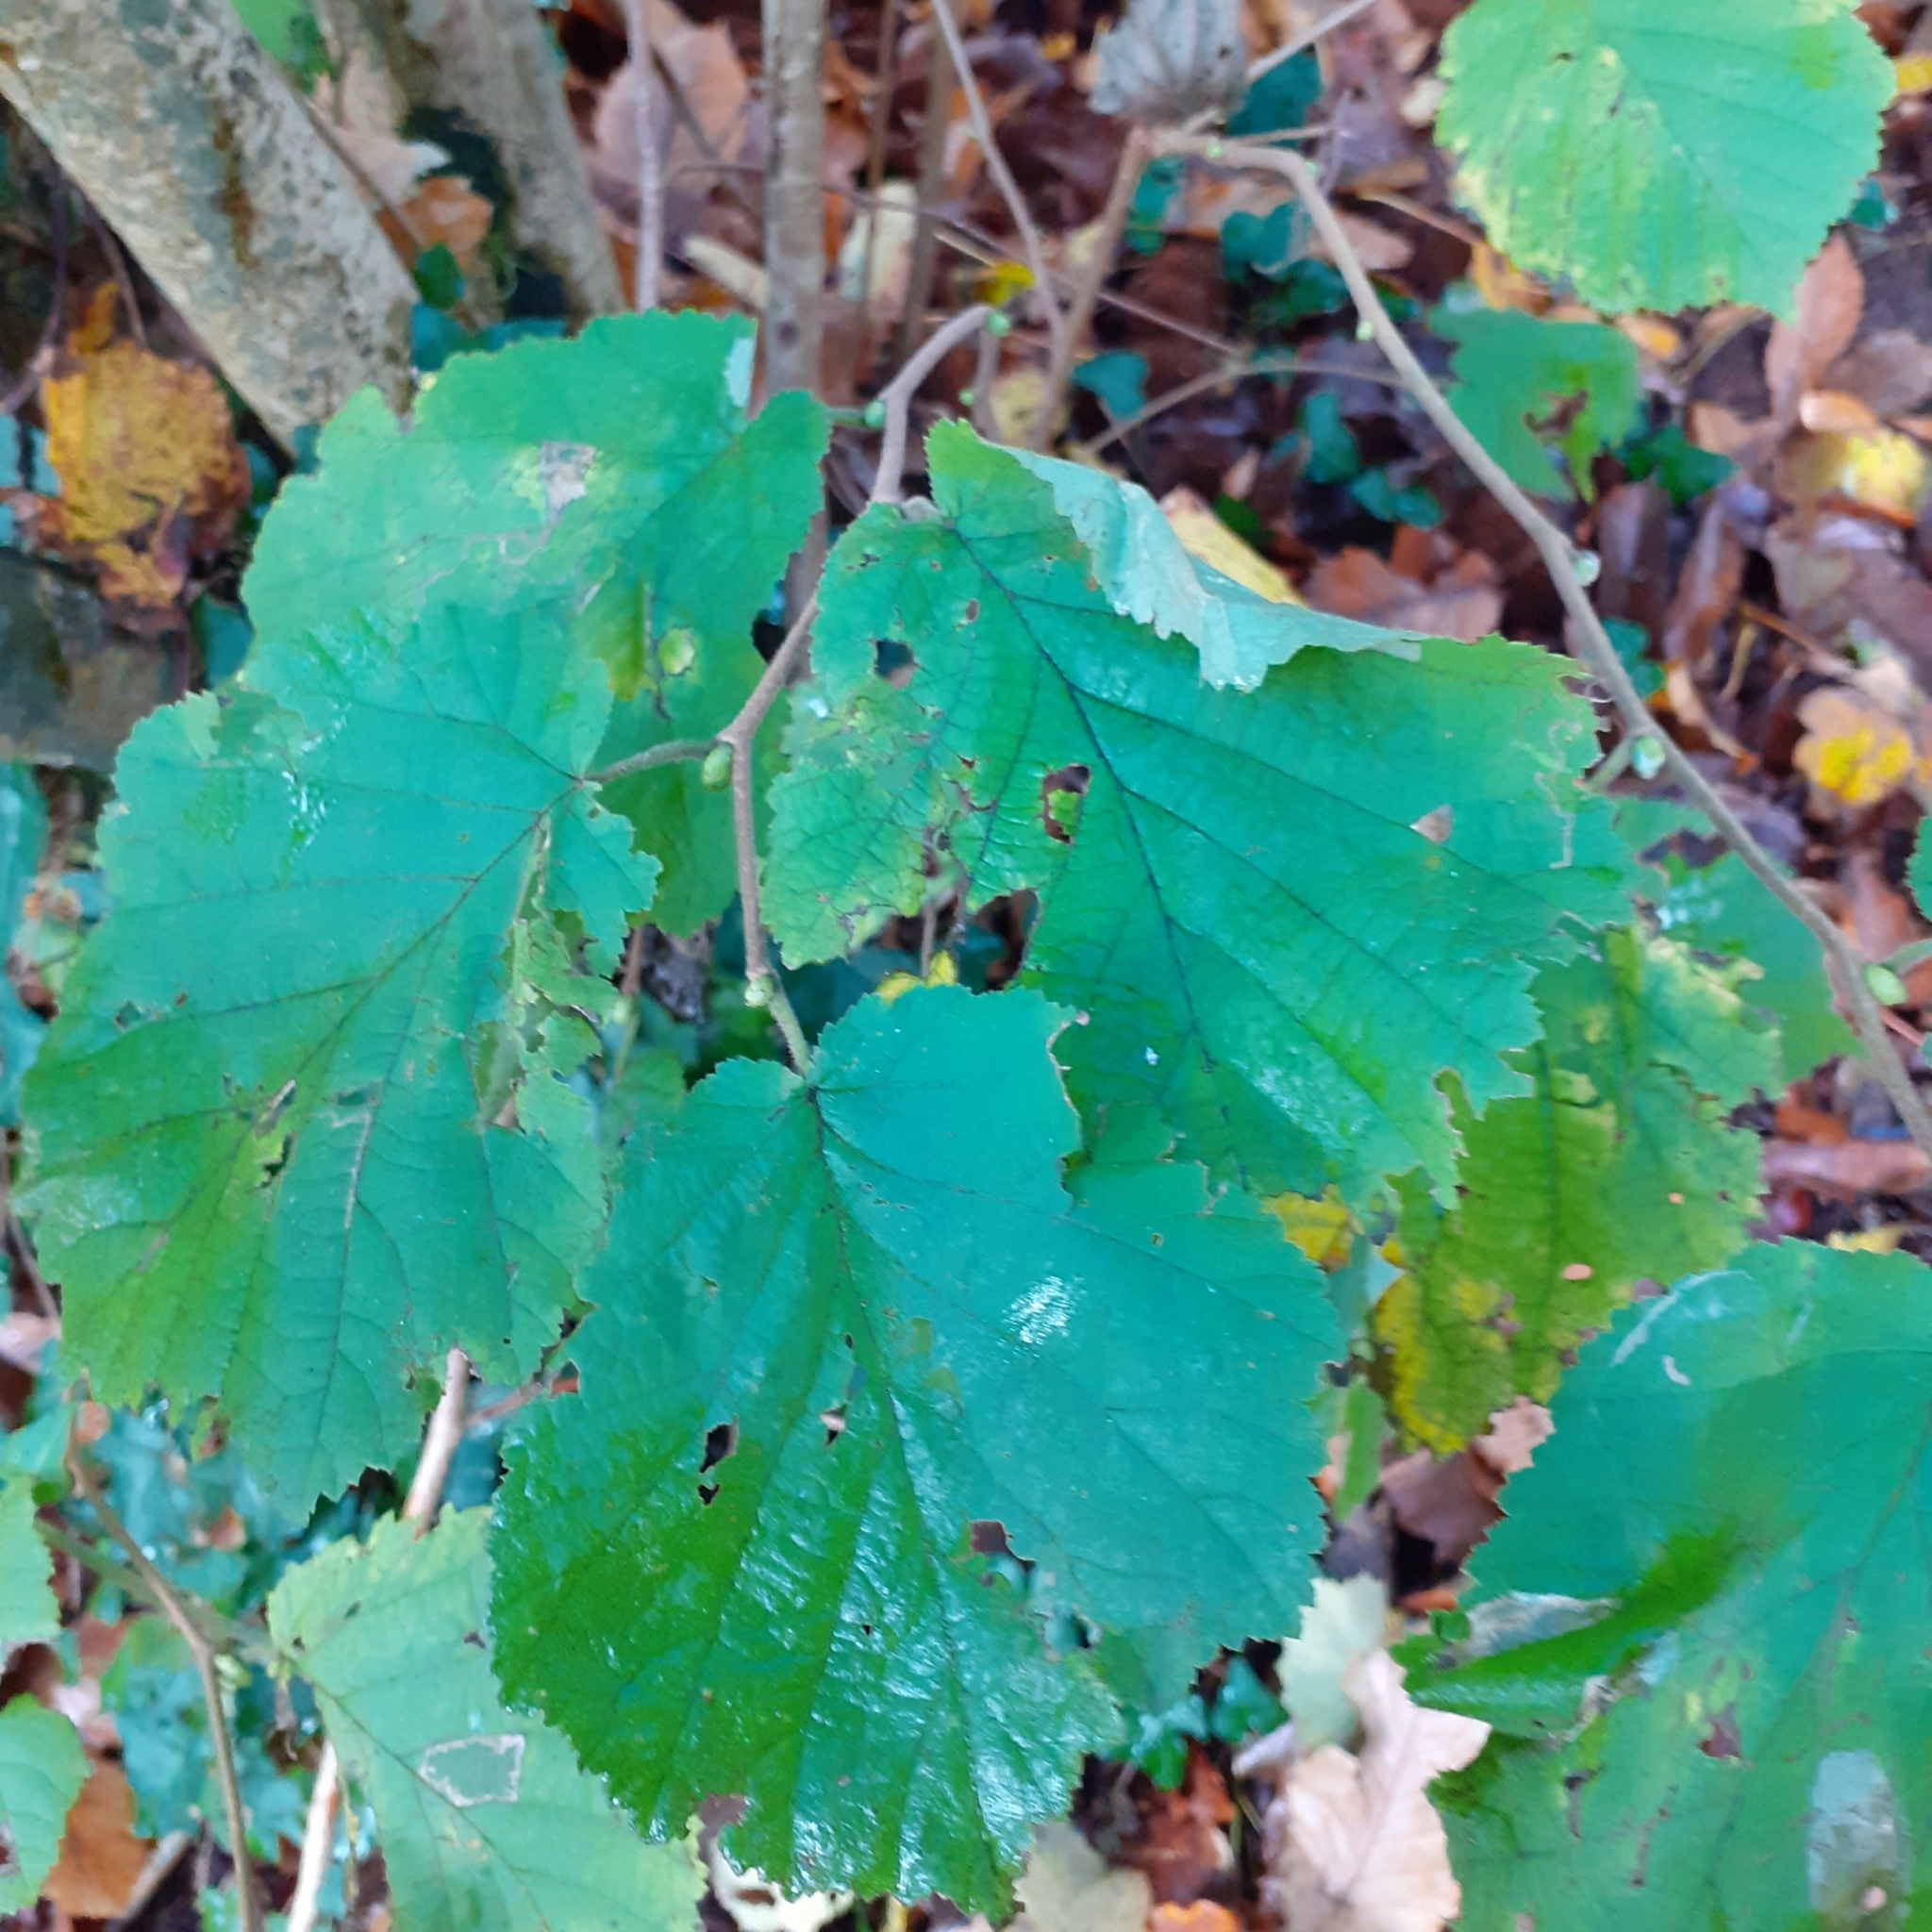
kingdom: Plantae
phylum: Tracheophyta
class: Magnoliopsida
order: Fagales
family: Betulaceae
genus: Corylus
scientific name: Corylus avellana
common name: European hazel
